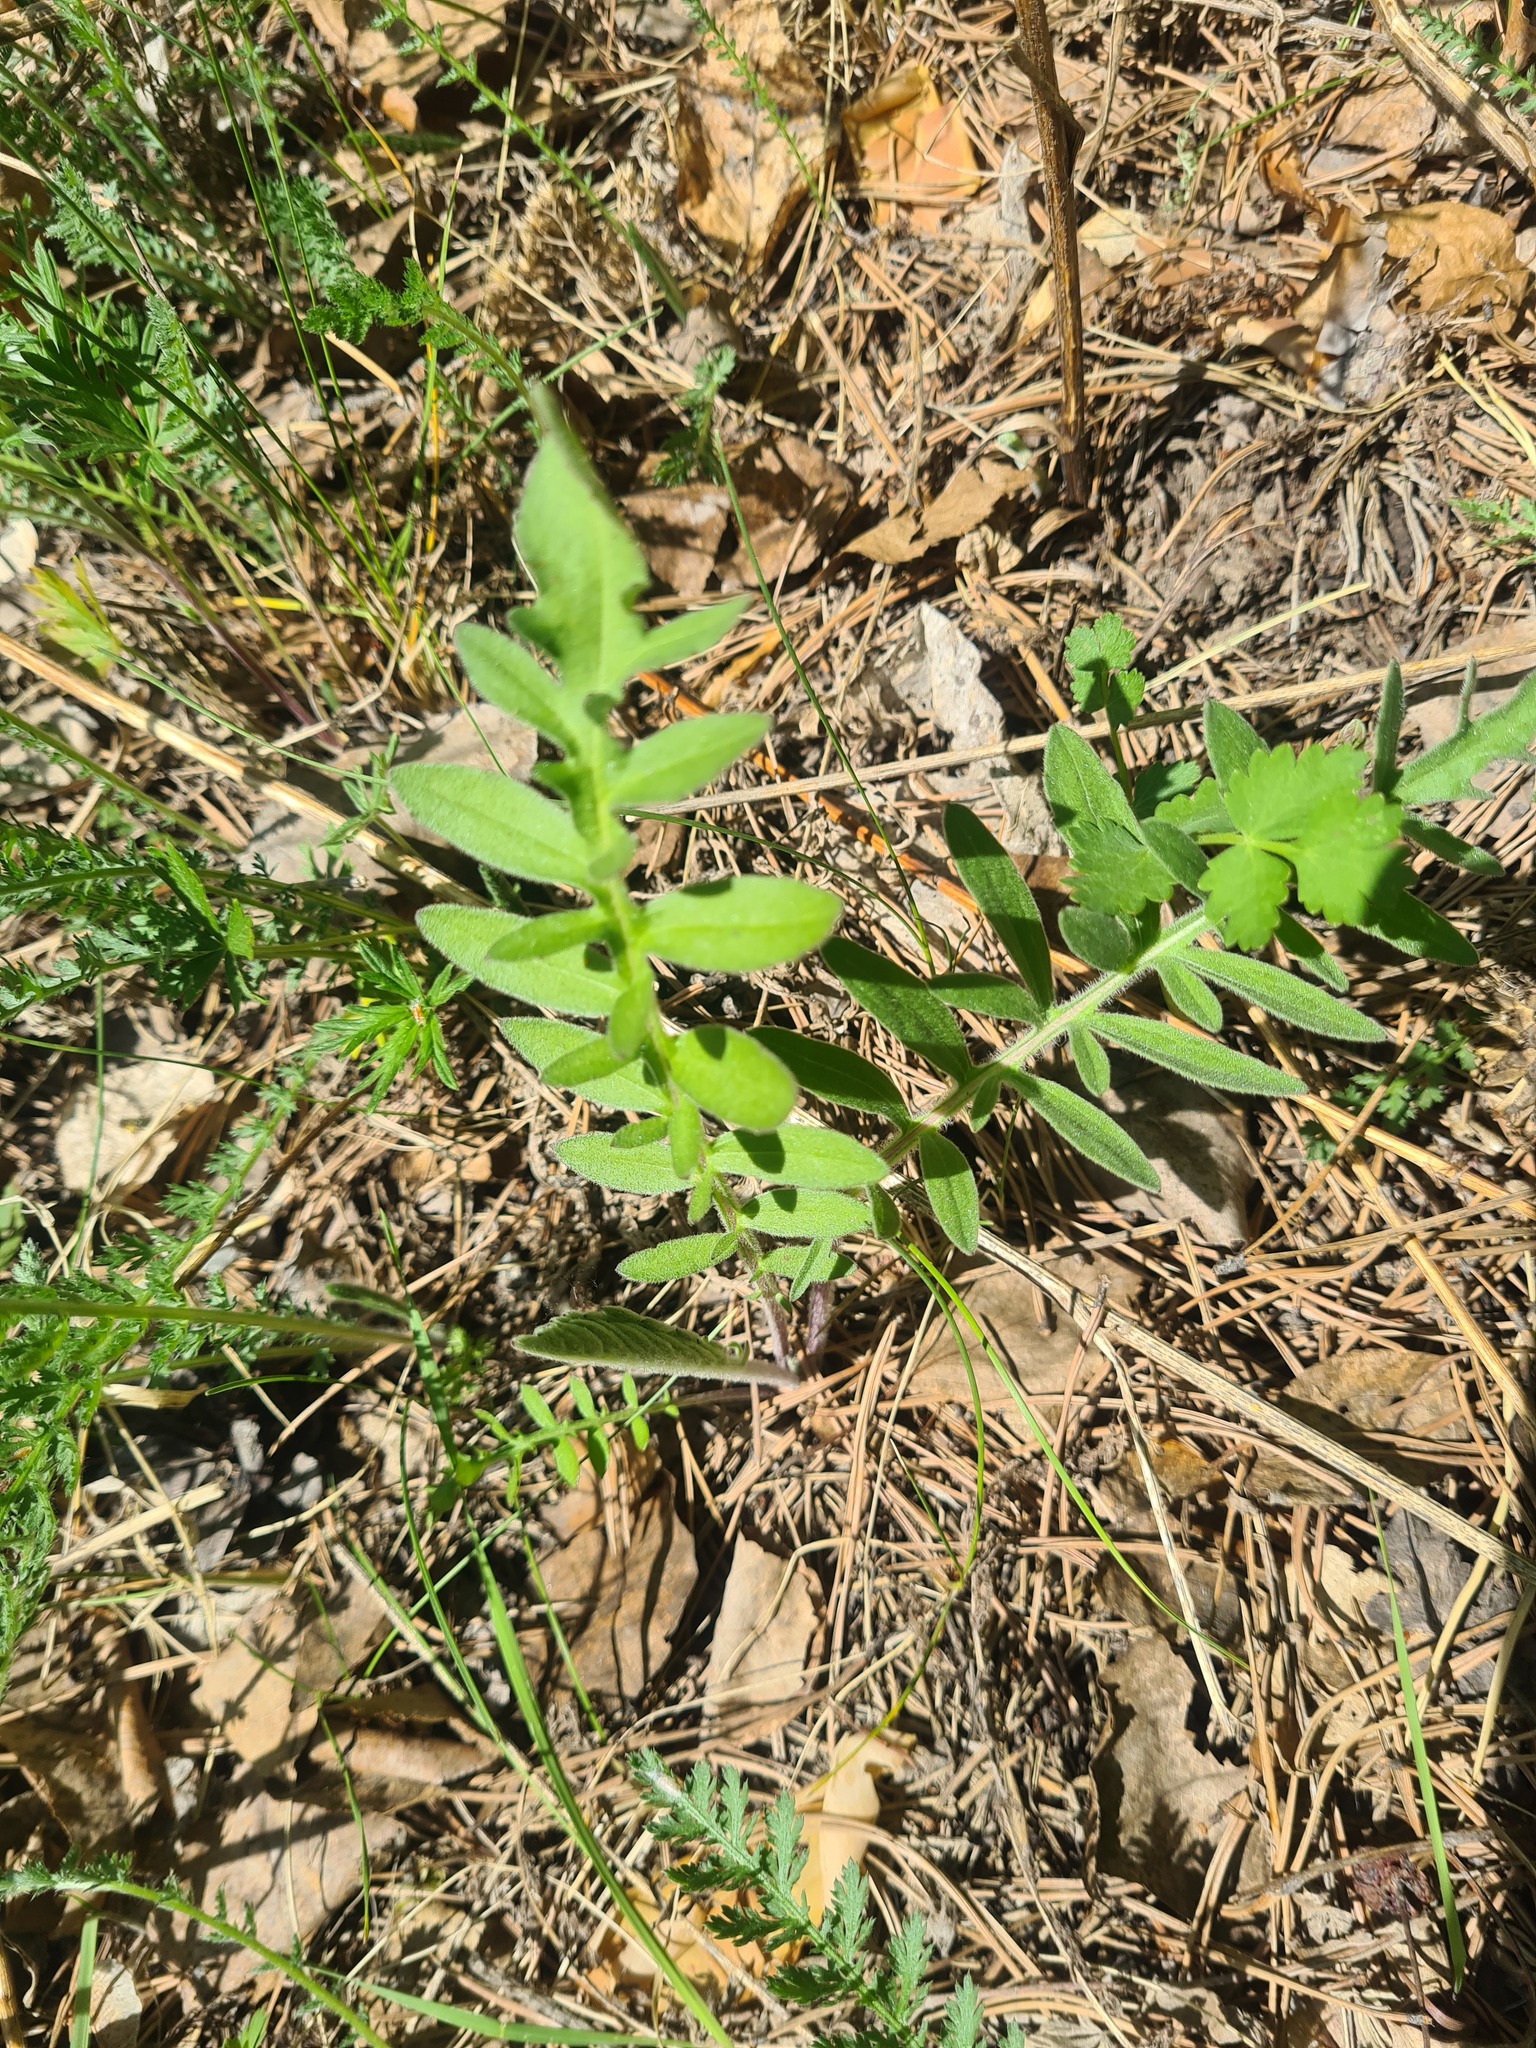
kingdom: Plantae
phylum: Tracheophyta
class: Magnoliopsida
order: Asterales
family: Asteraceae
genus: Centaurea
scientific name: Centaurea scabiosa
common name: Greater knapweed
